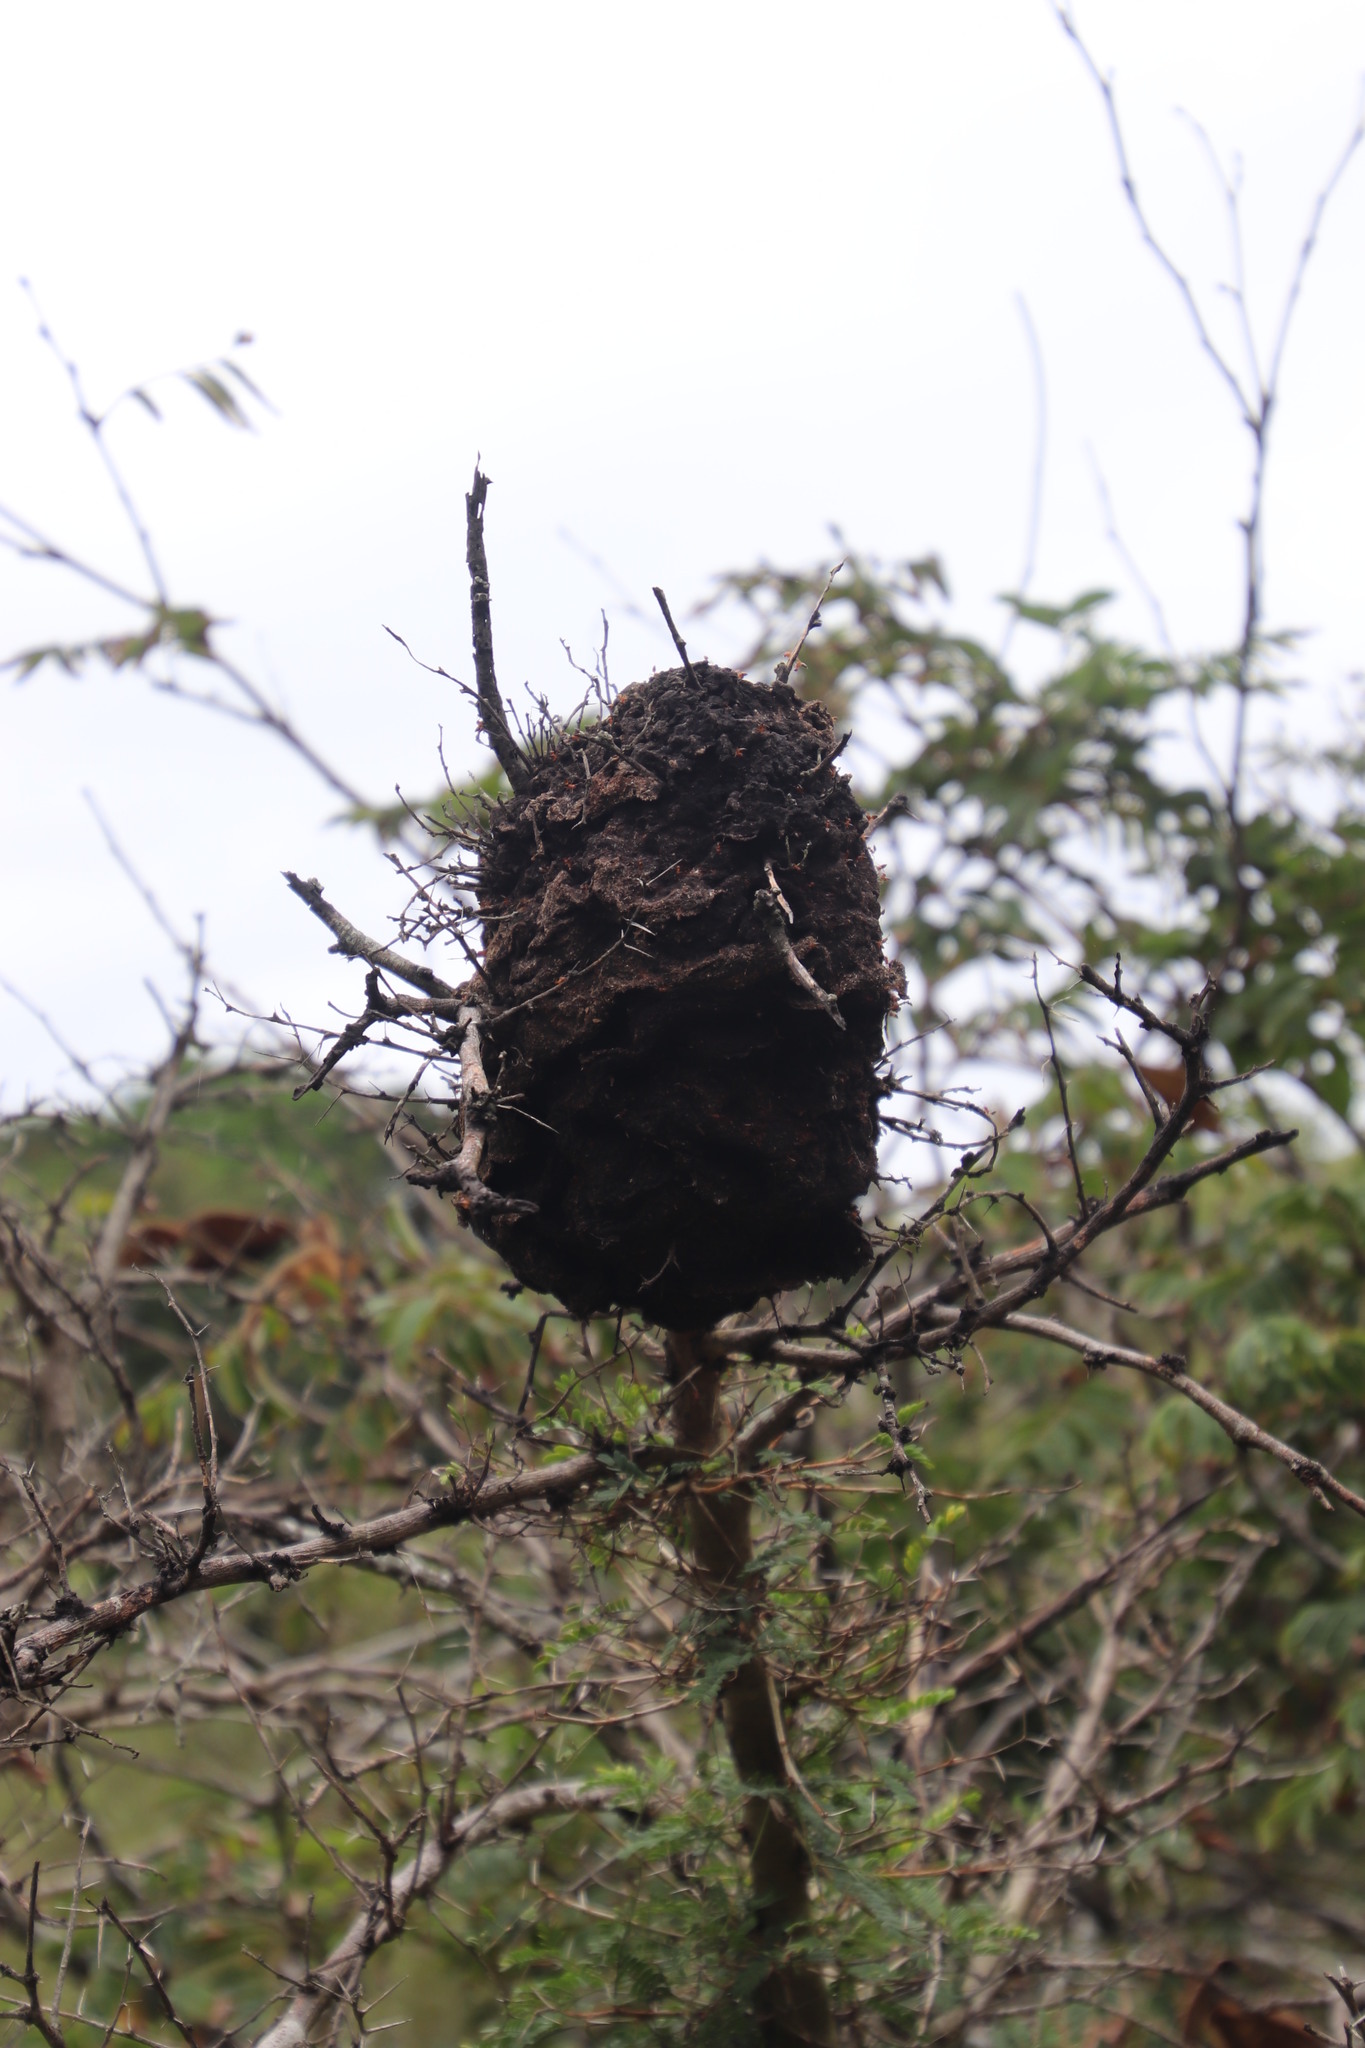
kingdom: Animalia
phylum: Arthropoda
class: Insecta
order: Hymenoptera
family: Formicidae
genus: Crematogaster
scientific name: Crematogaster castanea
